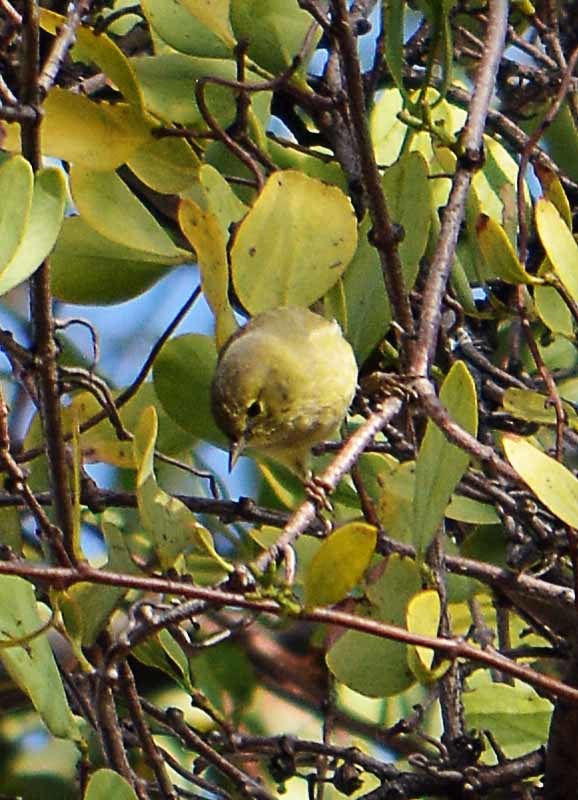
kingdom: Animalia
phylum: Chordata
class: Aves
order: Passeriformes
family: Parulidae
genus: Leiothlypis
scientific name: Leiothlypis celata
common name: Orange-crowned warbler
